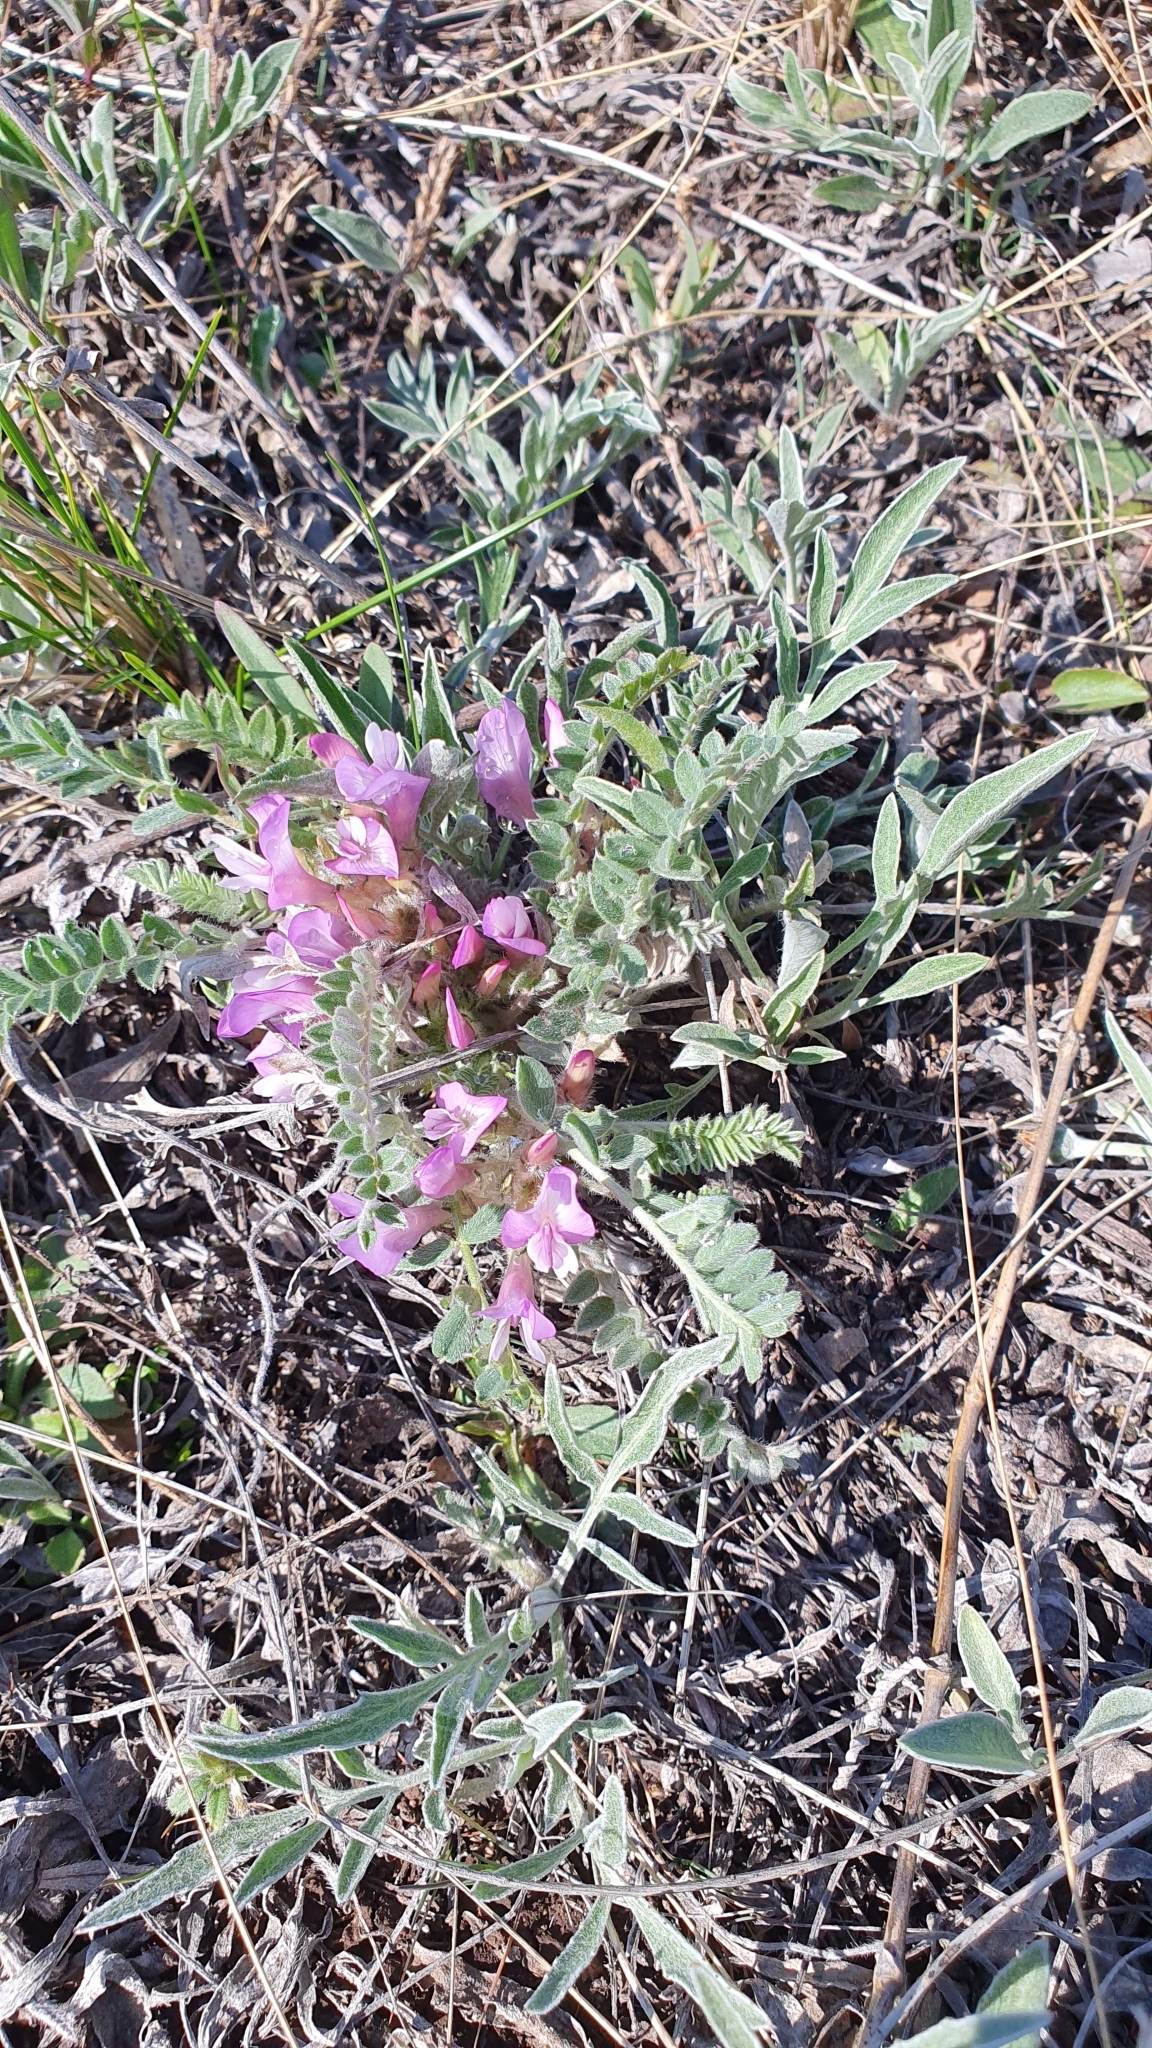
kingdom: Plantae
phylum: Tracheophyta
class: Magnoliopsida
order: Fabales
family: Fabaceae
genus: Astragalus
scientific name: Astragalus testiculatus
